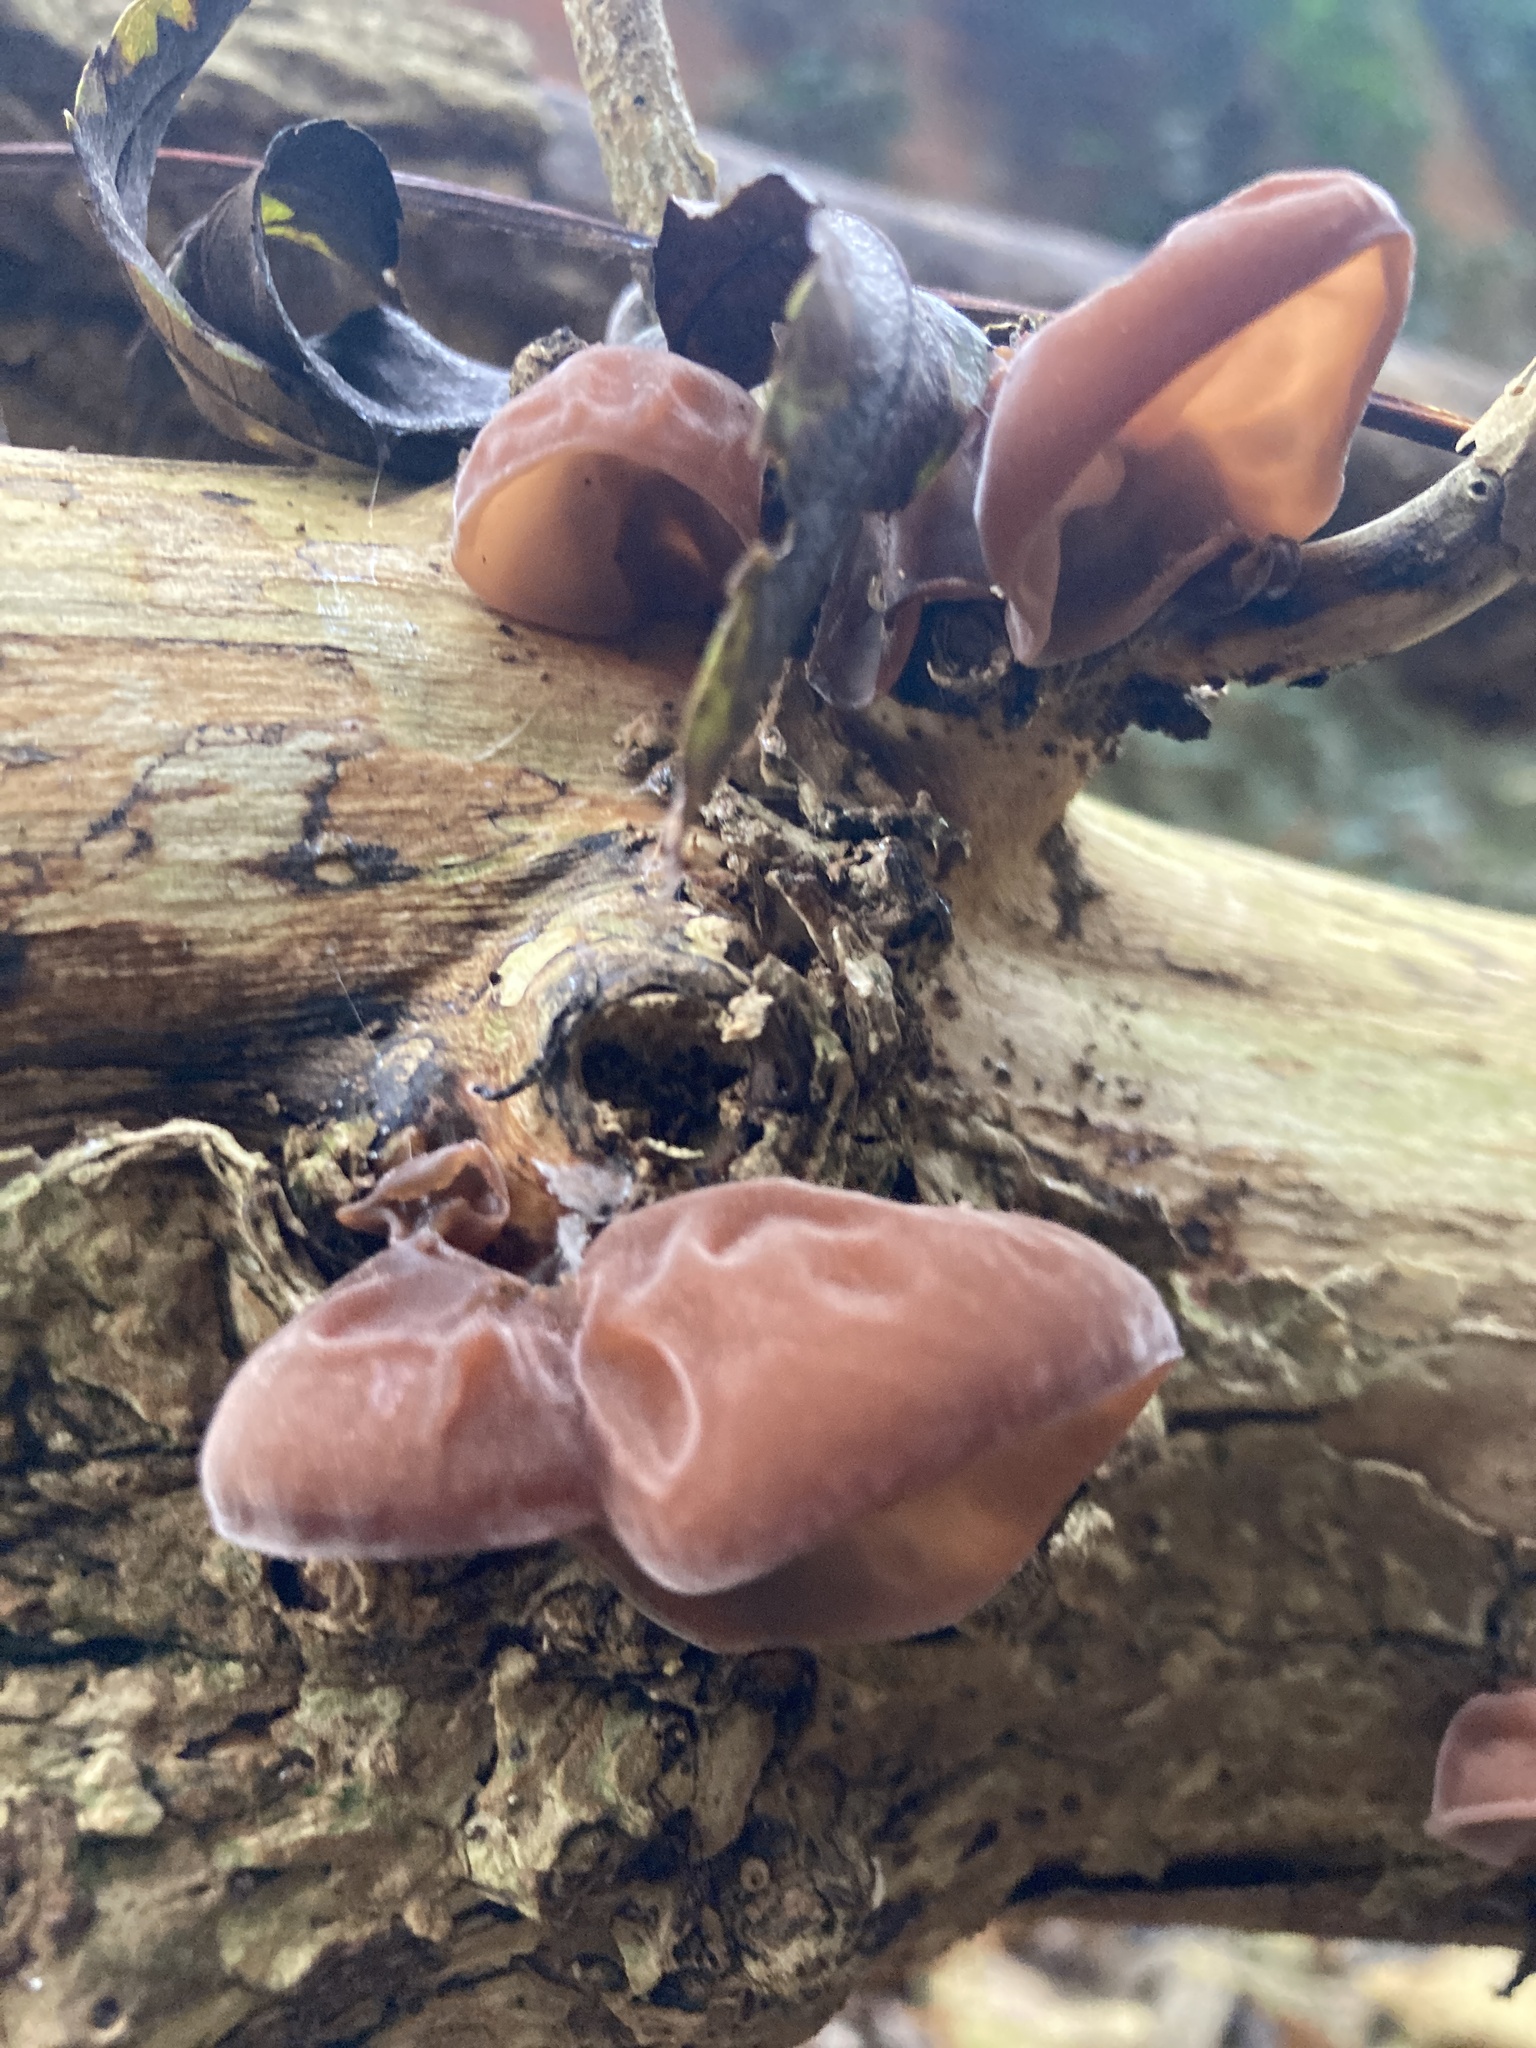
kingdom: Fungi
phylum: Basidiomycota
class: Agaricomycetes
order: Auriculariales
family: Auriculariaceae
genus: Auricularia
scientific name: Auricularia auricula-judae
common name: Jelly ear
